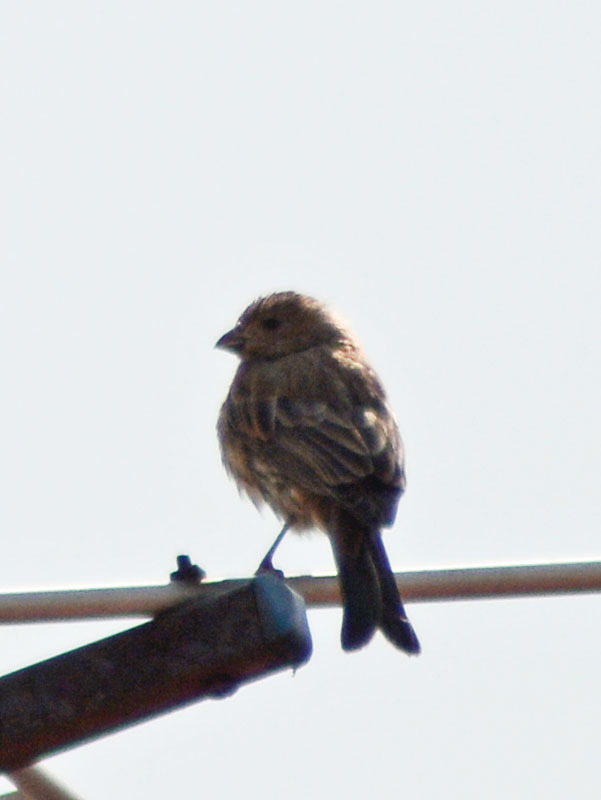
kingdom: Animalia
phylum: Chordata
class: Aves
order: Passeriformes
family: Fringillidae
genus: Haemorhous
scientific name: Haemorhous mexicanus
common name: House finch
